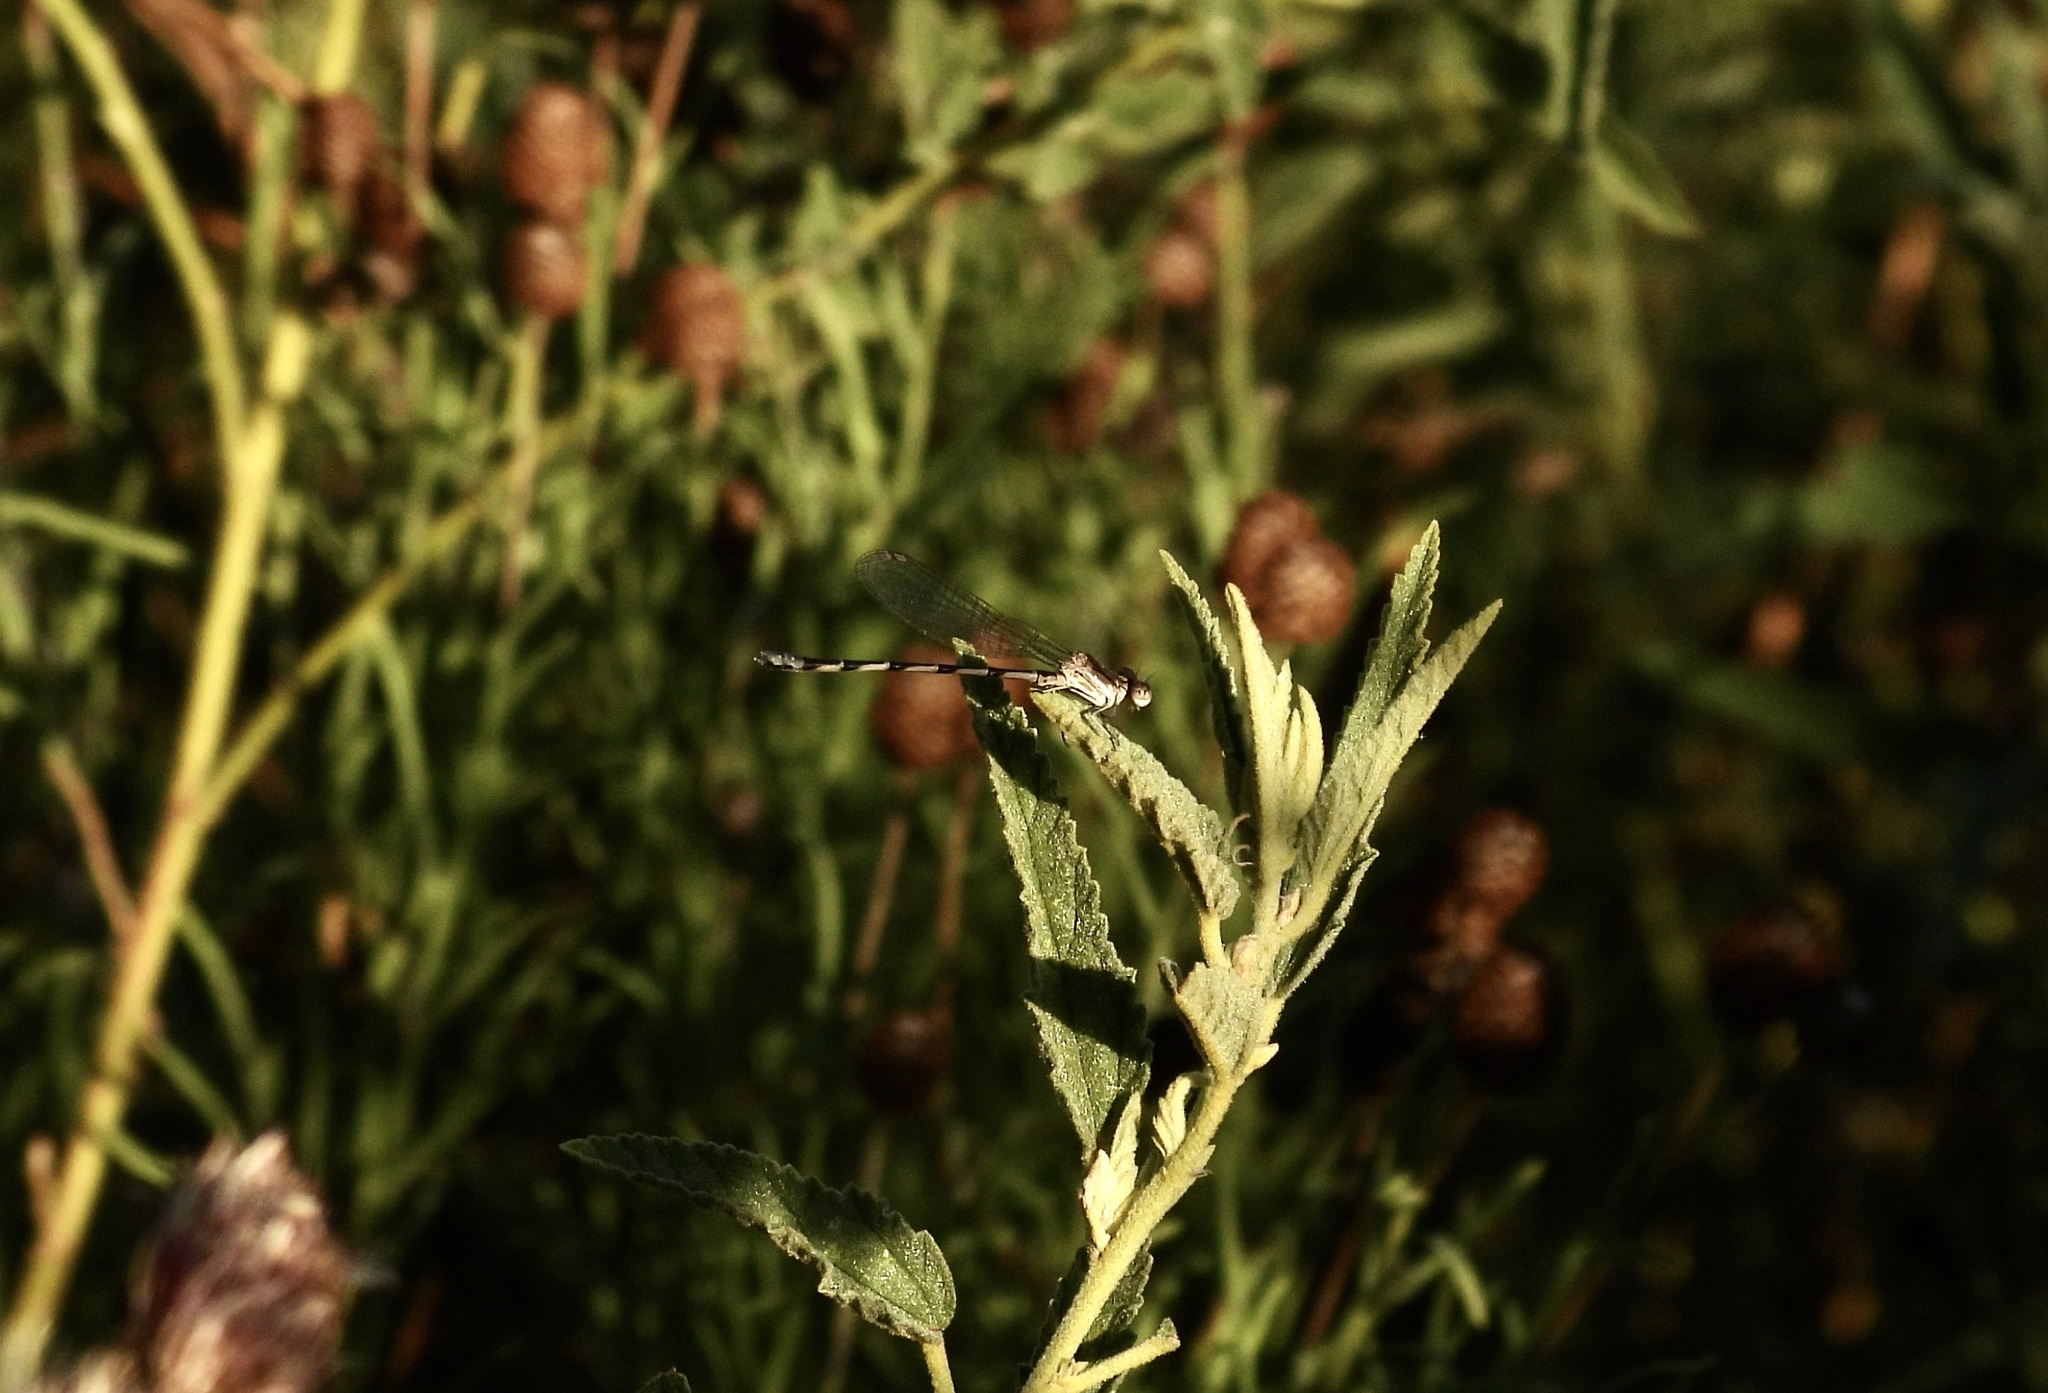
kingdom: Animalia
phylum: Arthropoda
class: Insecta
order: Odonata
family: Coenagrionidae
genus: Argia
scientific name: Argia leonorae
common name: Leonora's dancer
